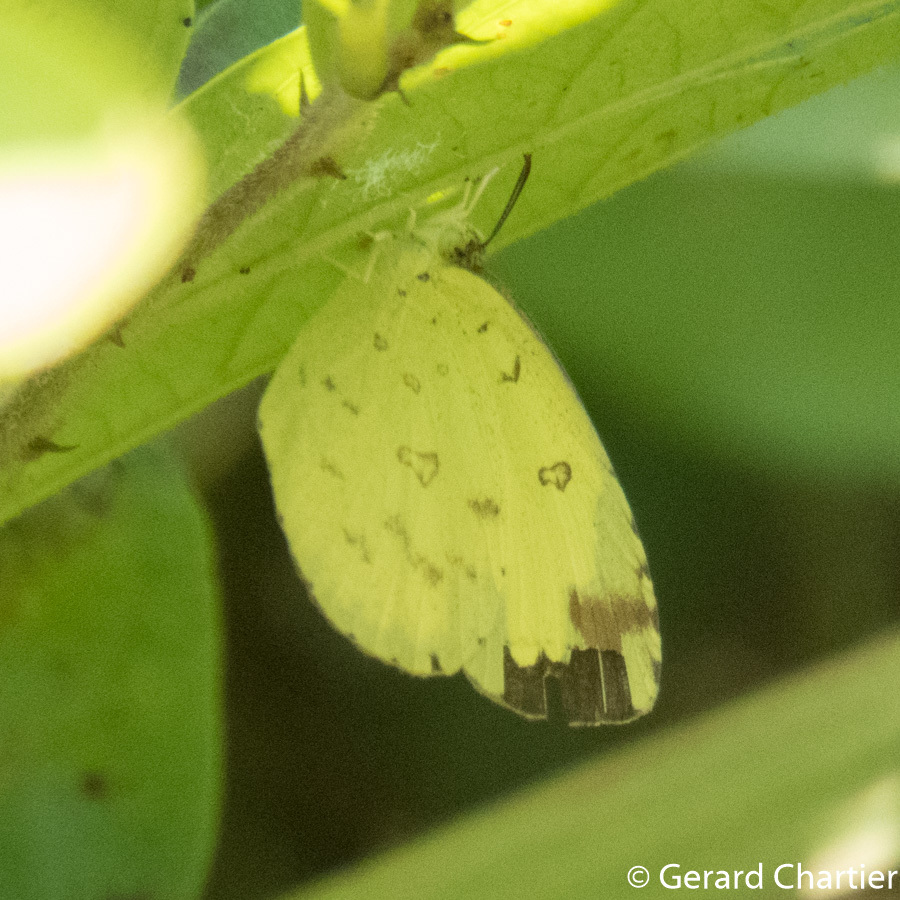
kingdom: Animalia
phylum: Arthropoda
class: Insecta
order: Lepidoptera
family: Pieridae
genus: Eurema
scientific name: Eurema hecabe
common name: Pale grass yellow
